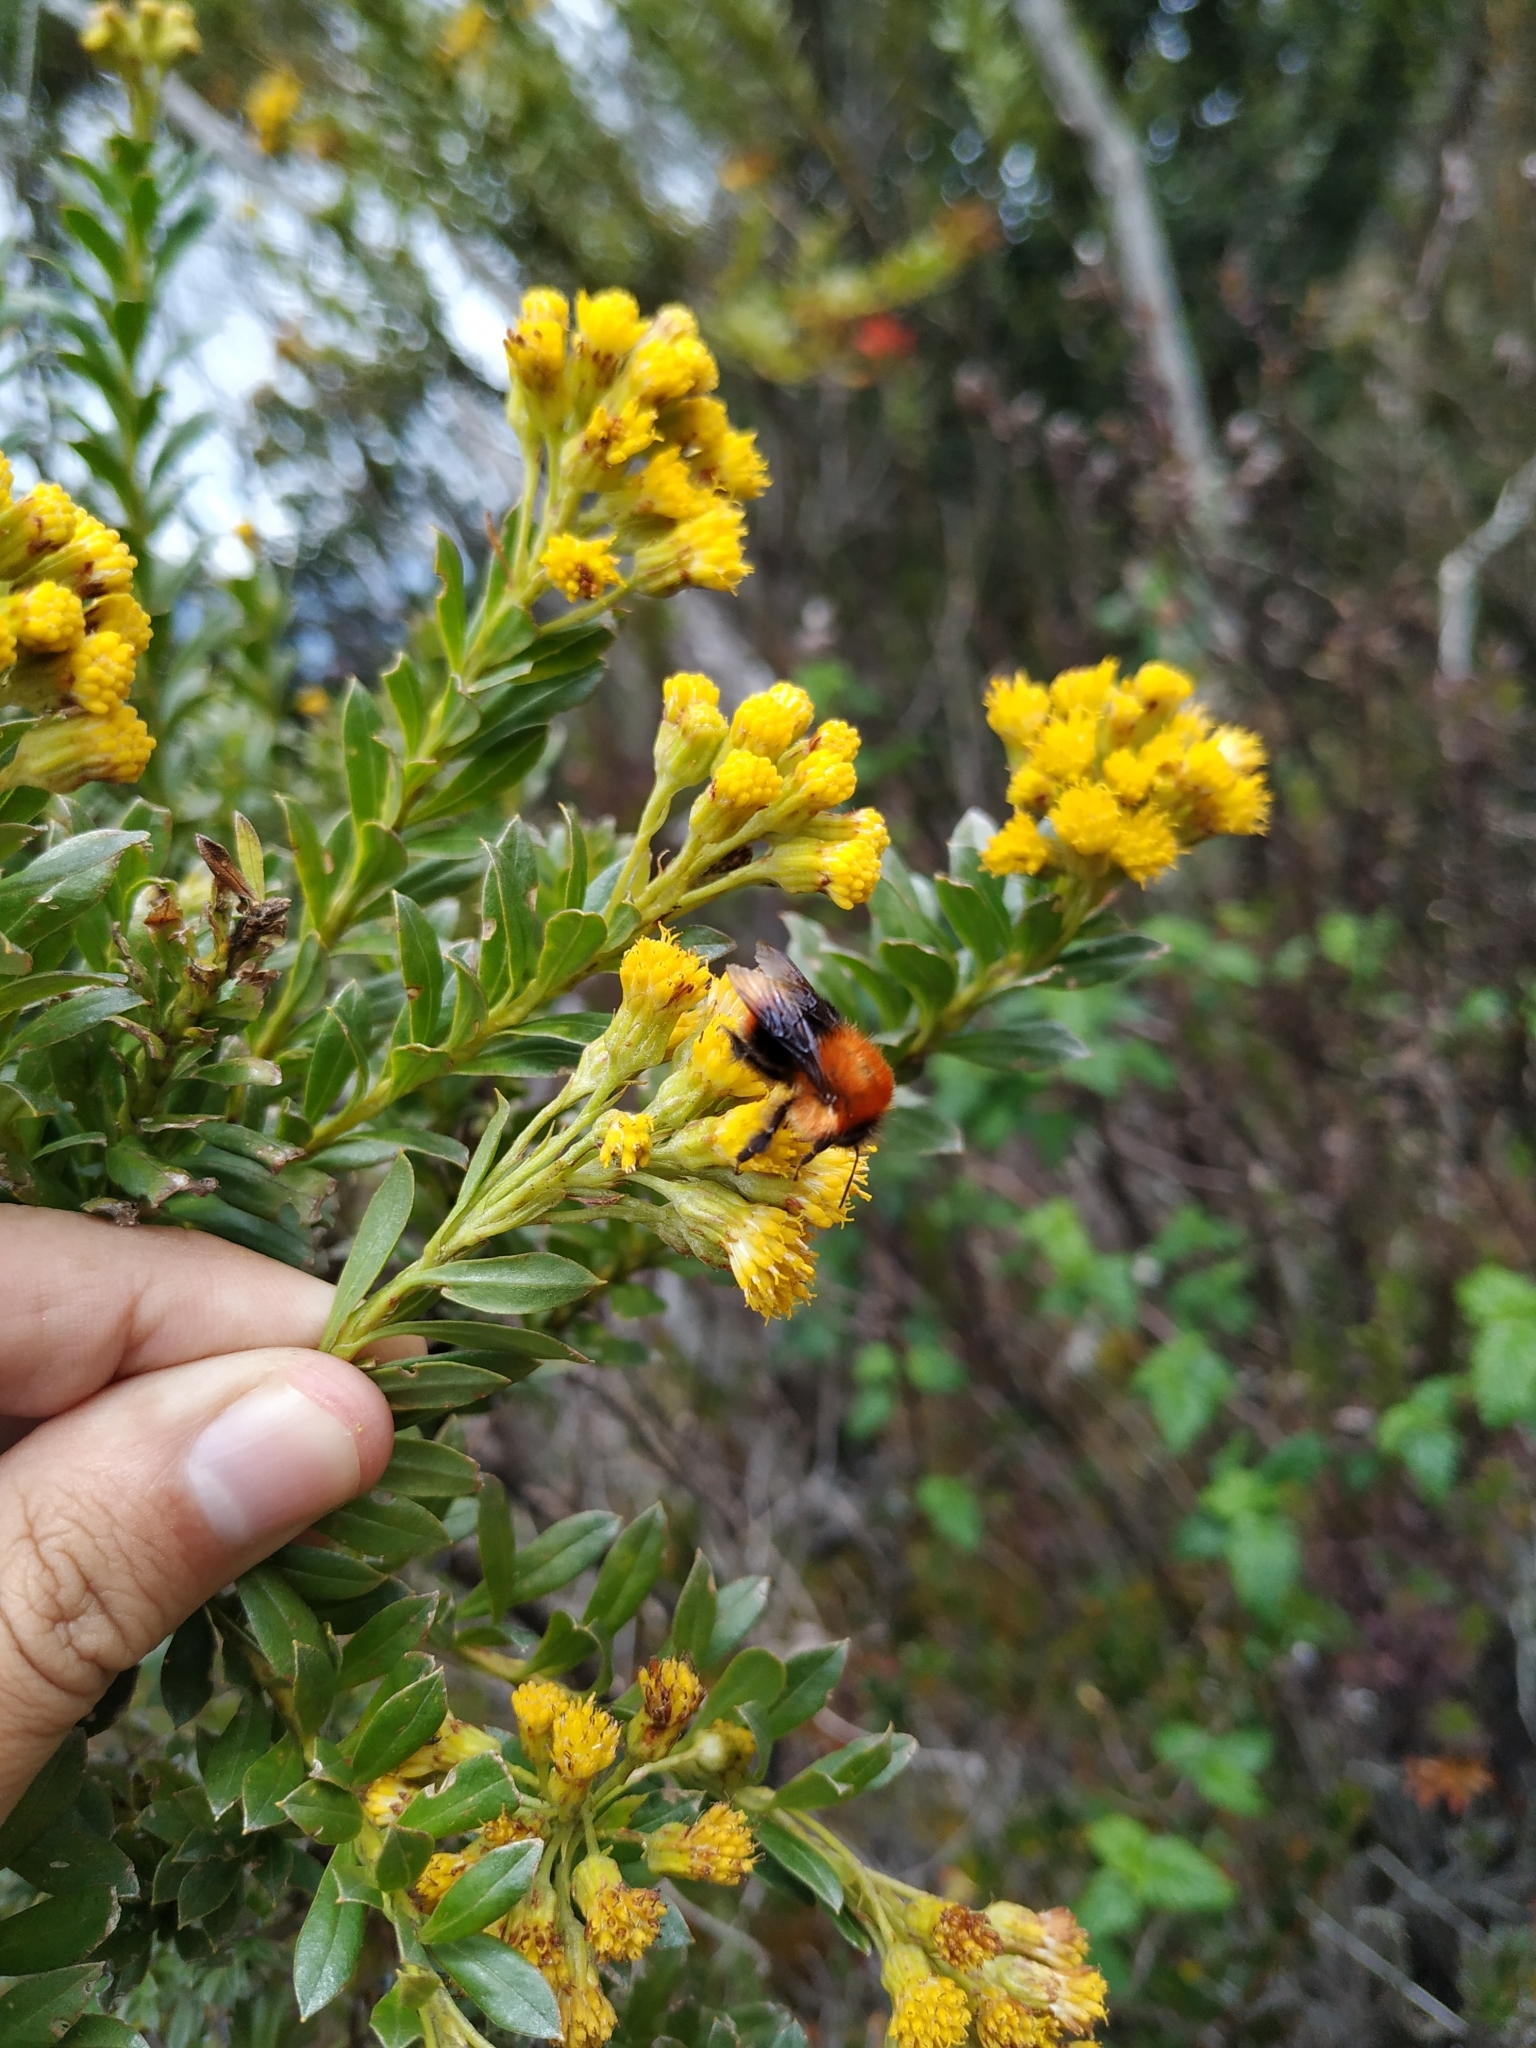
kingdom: Plantae
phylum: Tracheophyta
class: Magnoliopsida
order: Asterales
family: Asteraceae
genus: Monticalia
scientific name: Monticalia ledifolia
